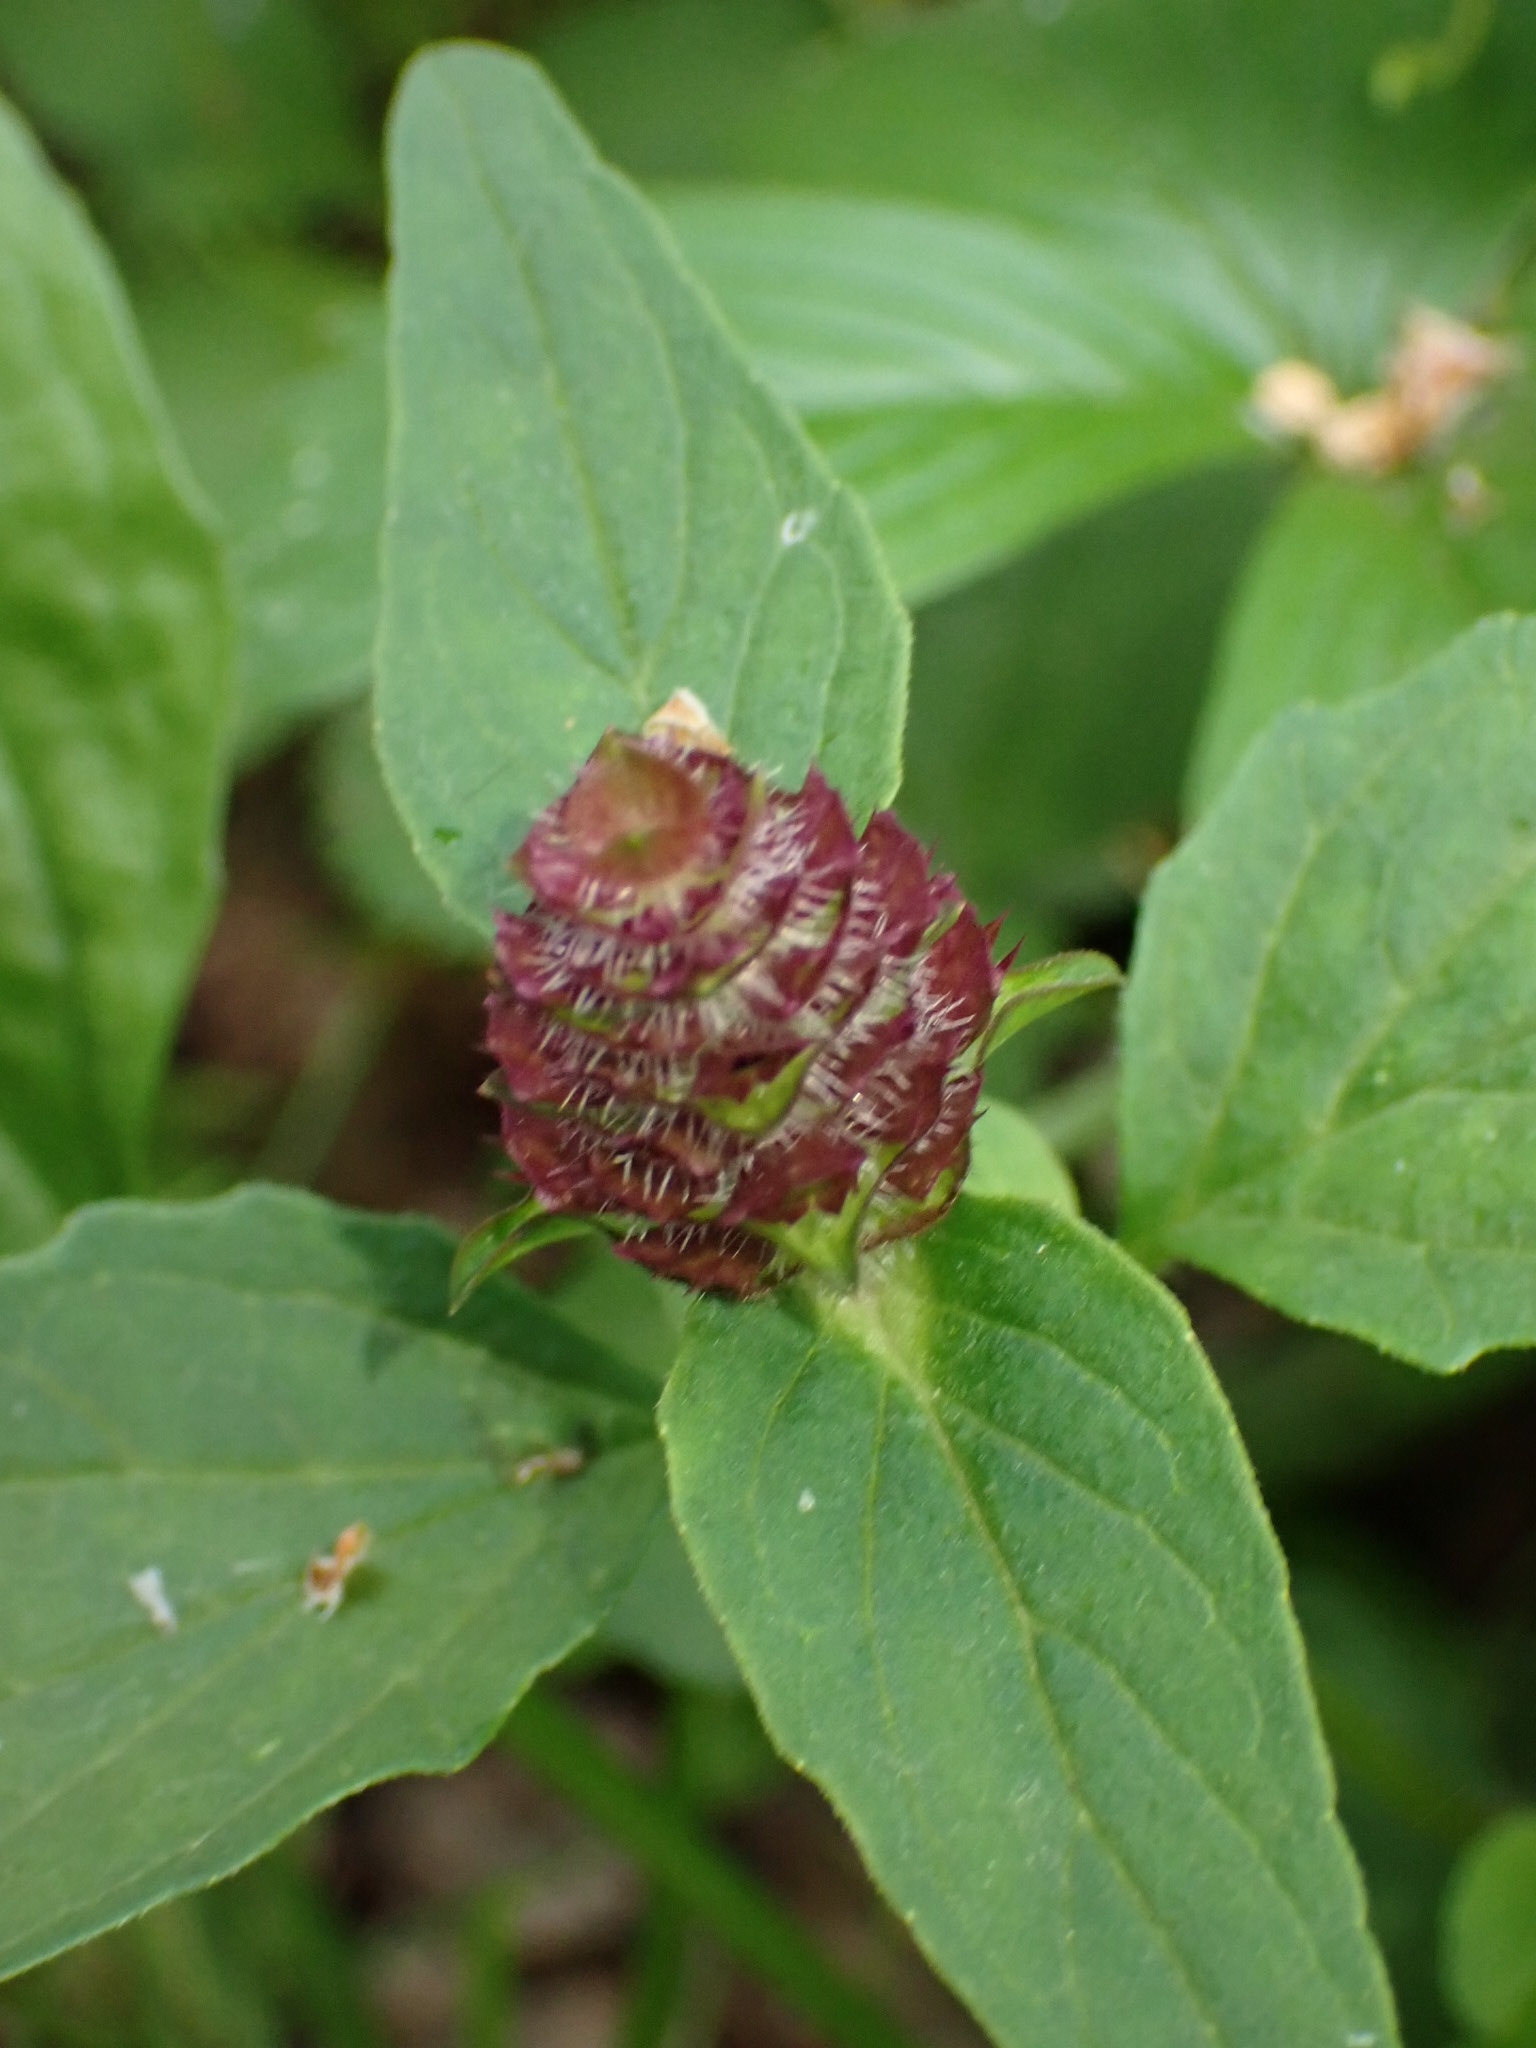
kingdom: Plantae
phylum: Tracheophyta
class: Magnoliopsida
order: Lamiales
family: Lamiaceae
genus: Prunella
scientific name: Prunella vulgaris
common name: Heal-all
